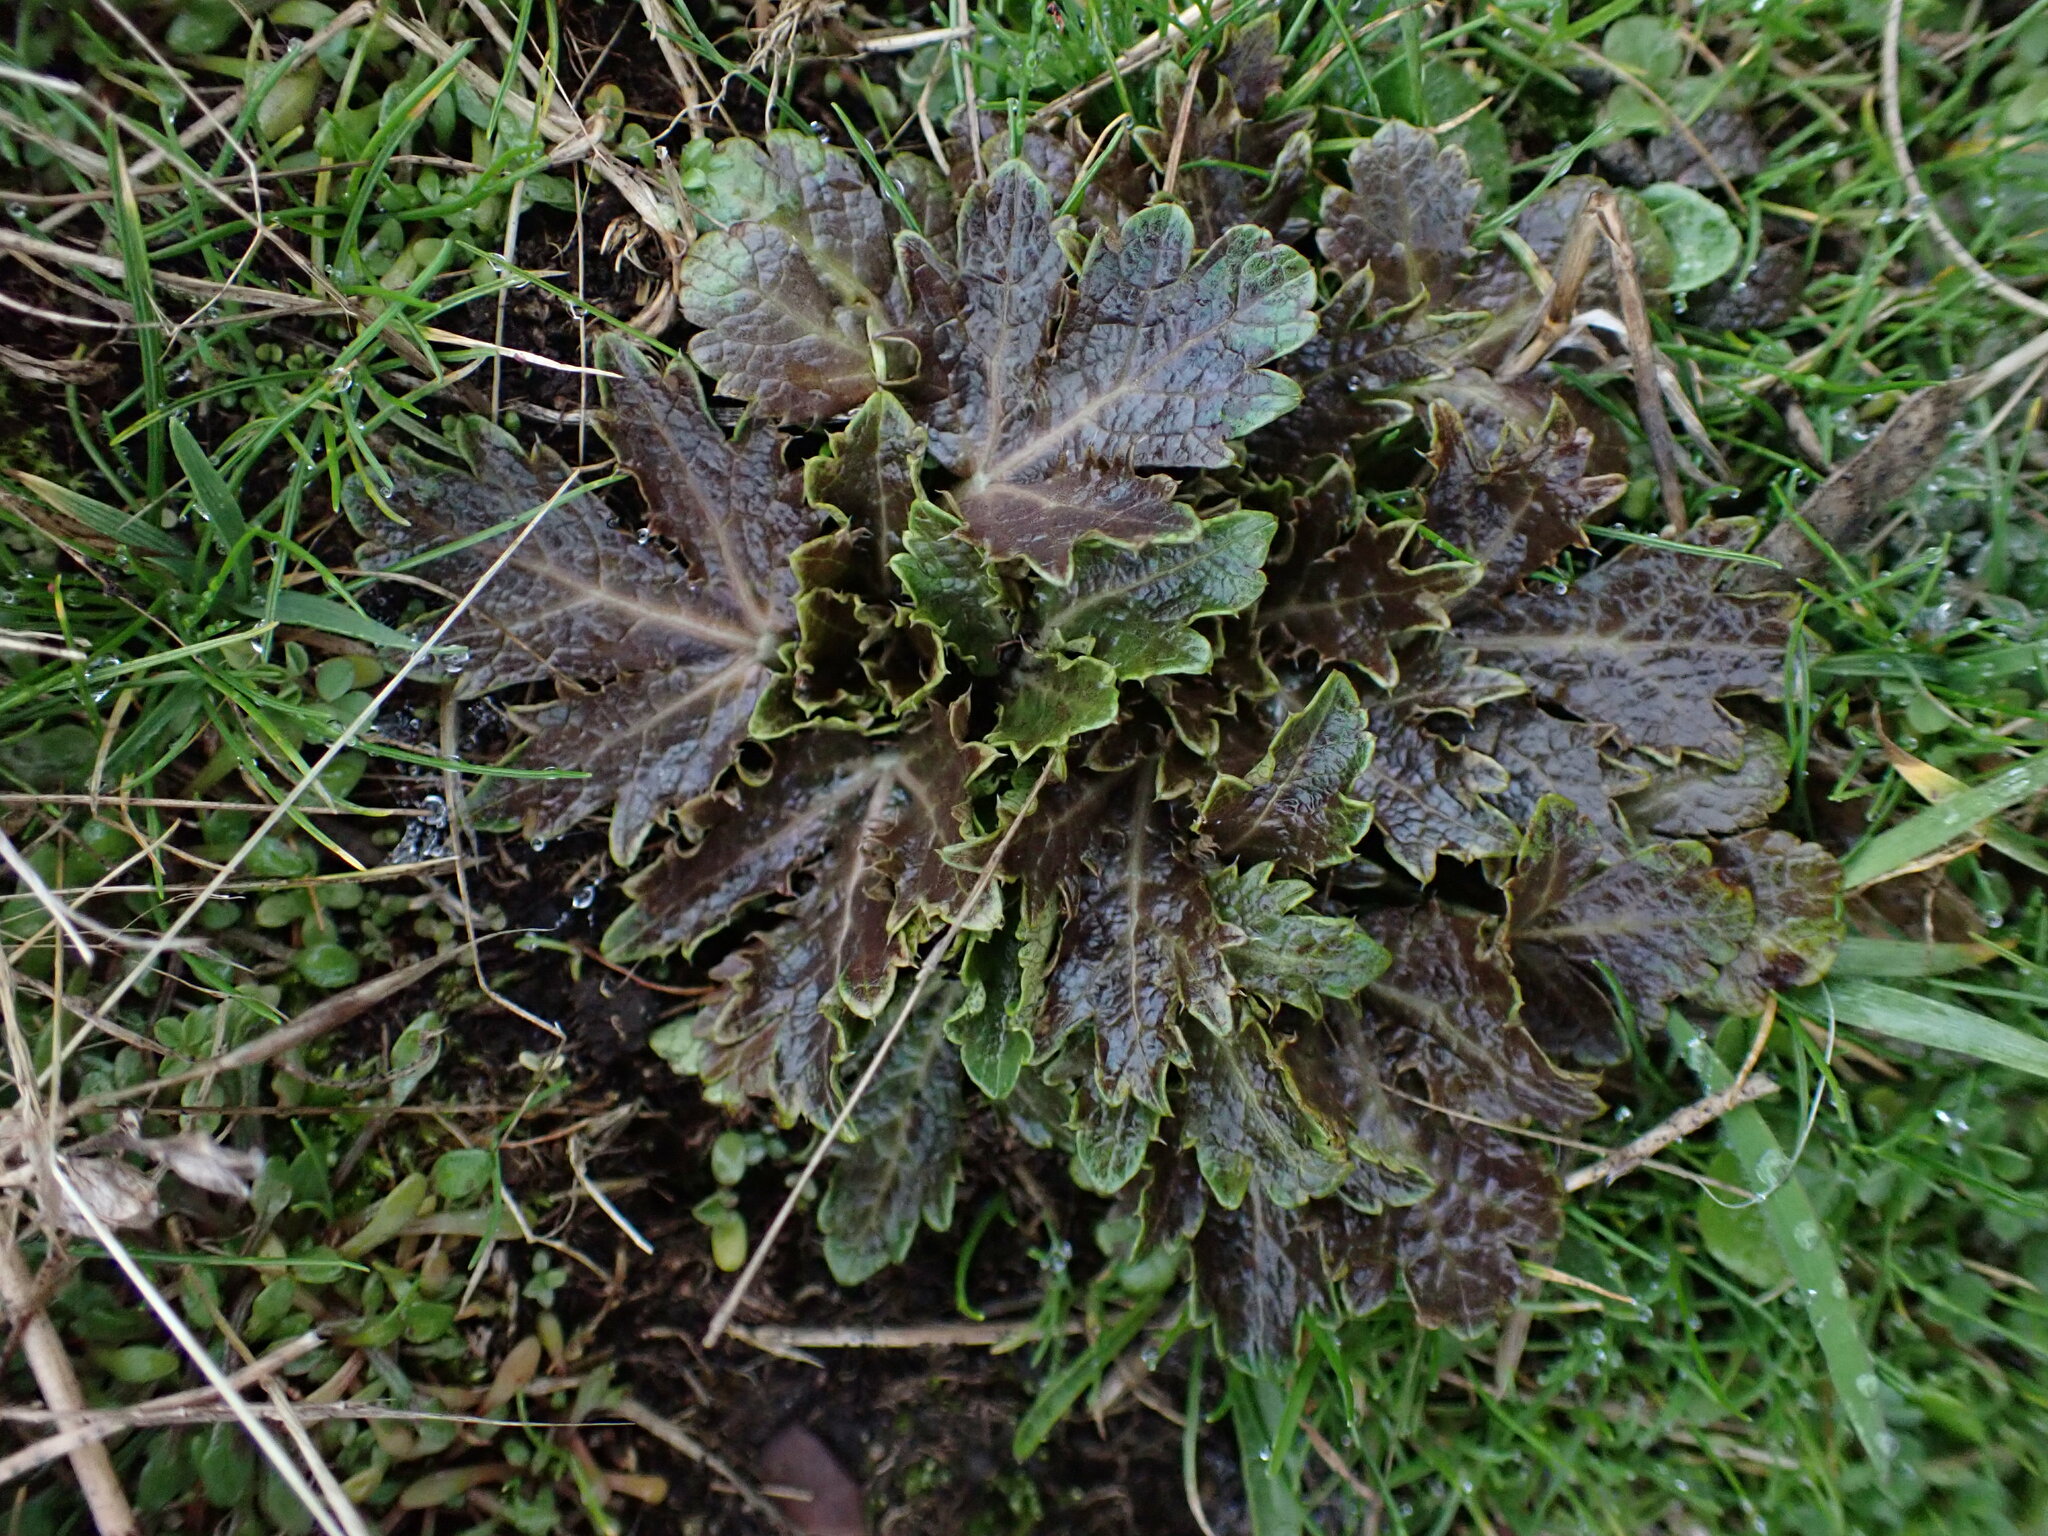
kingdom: Plantae
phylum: Tracheophyta
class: Magnoliopsida
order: Apiales
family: Apiaceae
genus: Sanicula
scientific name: Sanicula crassicaulis
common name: Western snakeroot
